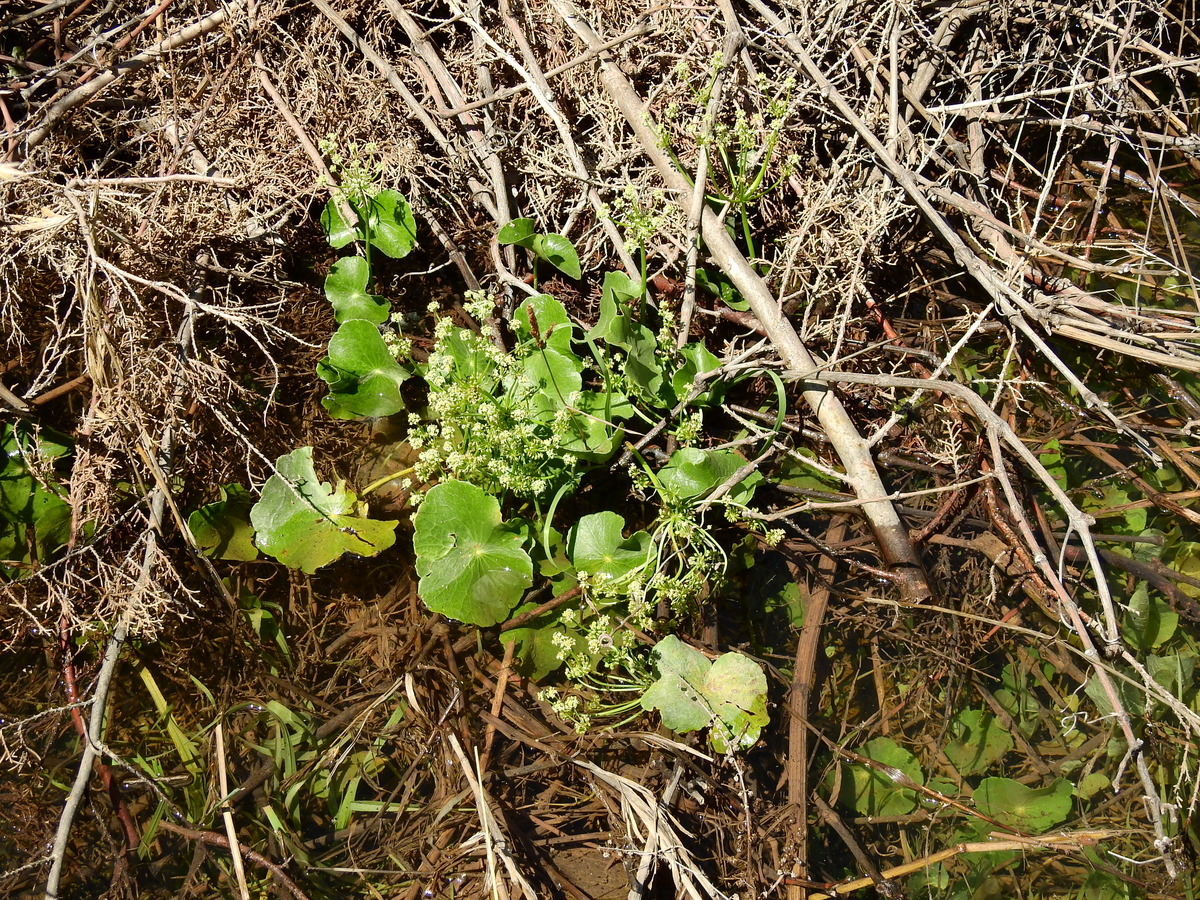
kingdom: Plantae
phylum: Tracheophyta
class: Magnoliopsida
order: Apiales
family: Araliaceae
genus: Hydrocotyle
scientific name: Hydrocotyle bonariensis
